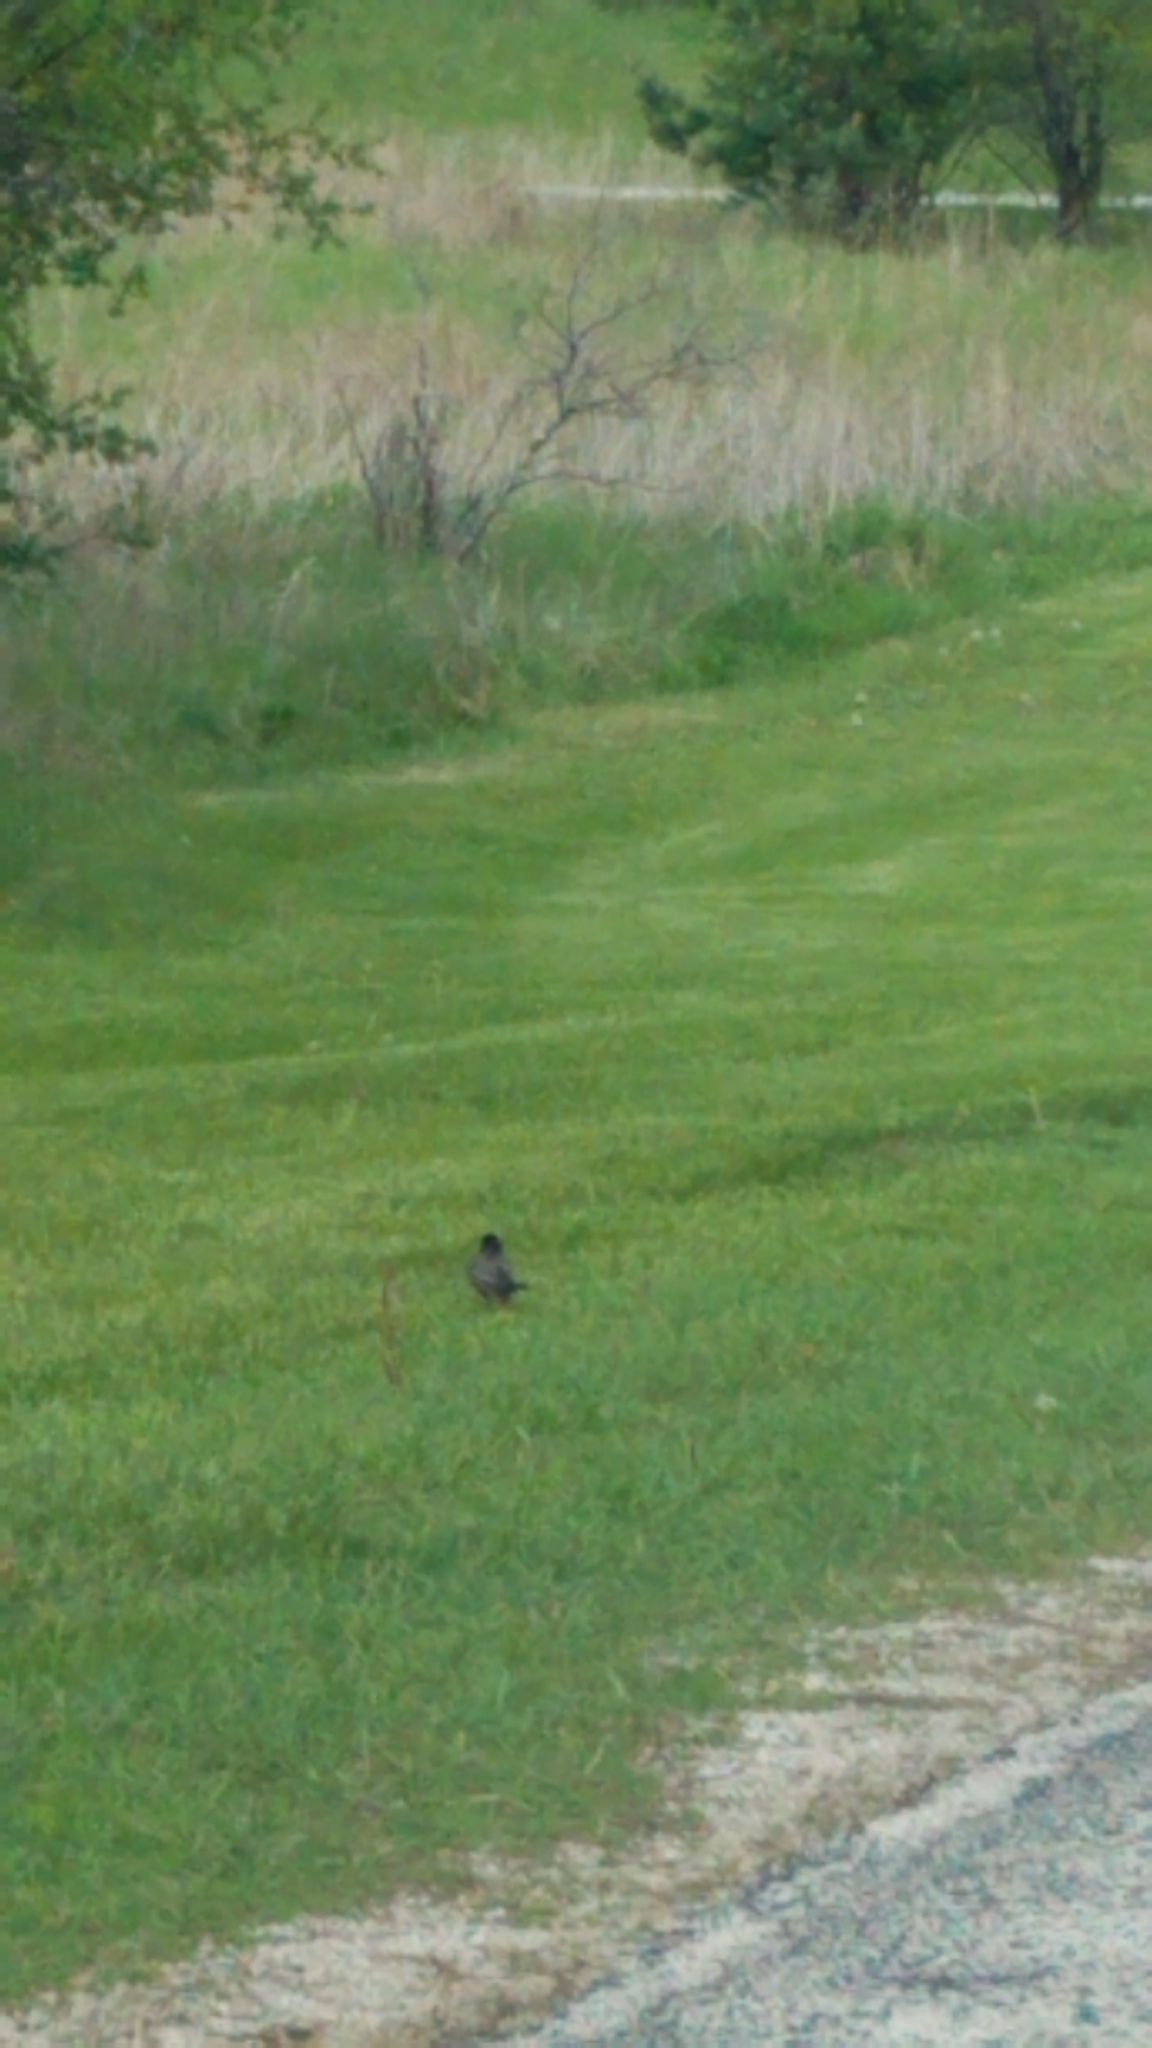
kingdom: Animalia
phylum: Chordata
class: Aves
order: Passeriformes
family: Turdidae
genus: Turdus
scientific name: Turdus migratorius
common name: American robin
